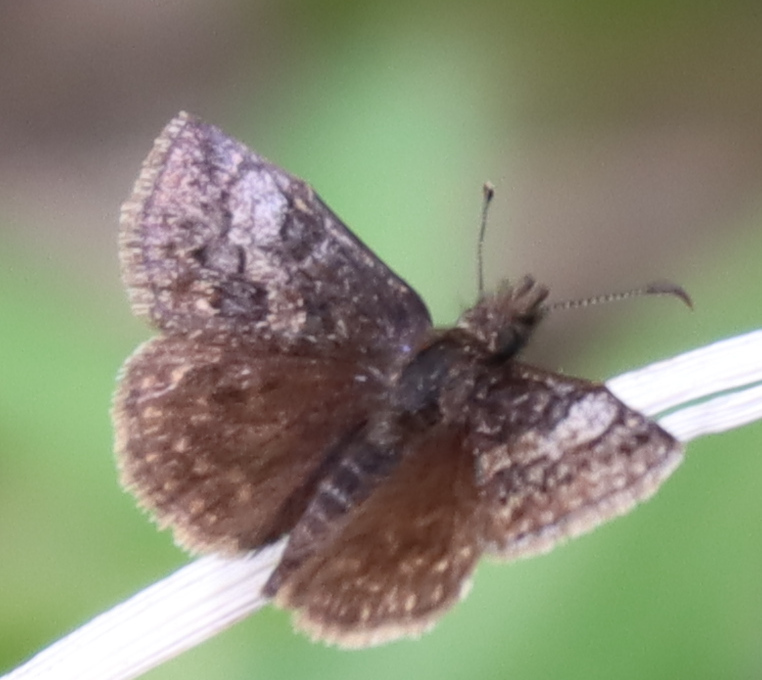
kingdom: Animalia
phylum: Arthropoda
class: Insecta
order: Lepidoptera
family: Hesperiidae
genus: Erynnis
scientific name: Erynnis icelus
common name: Dreamy duskywing
